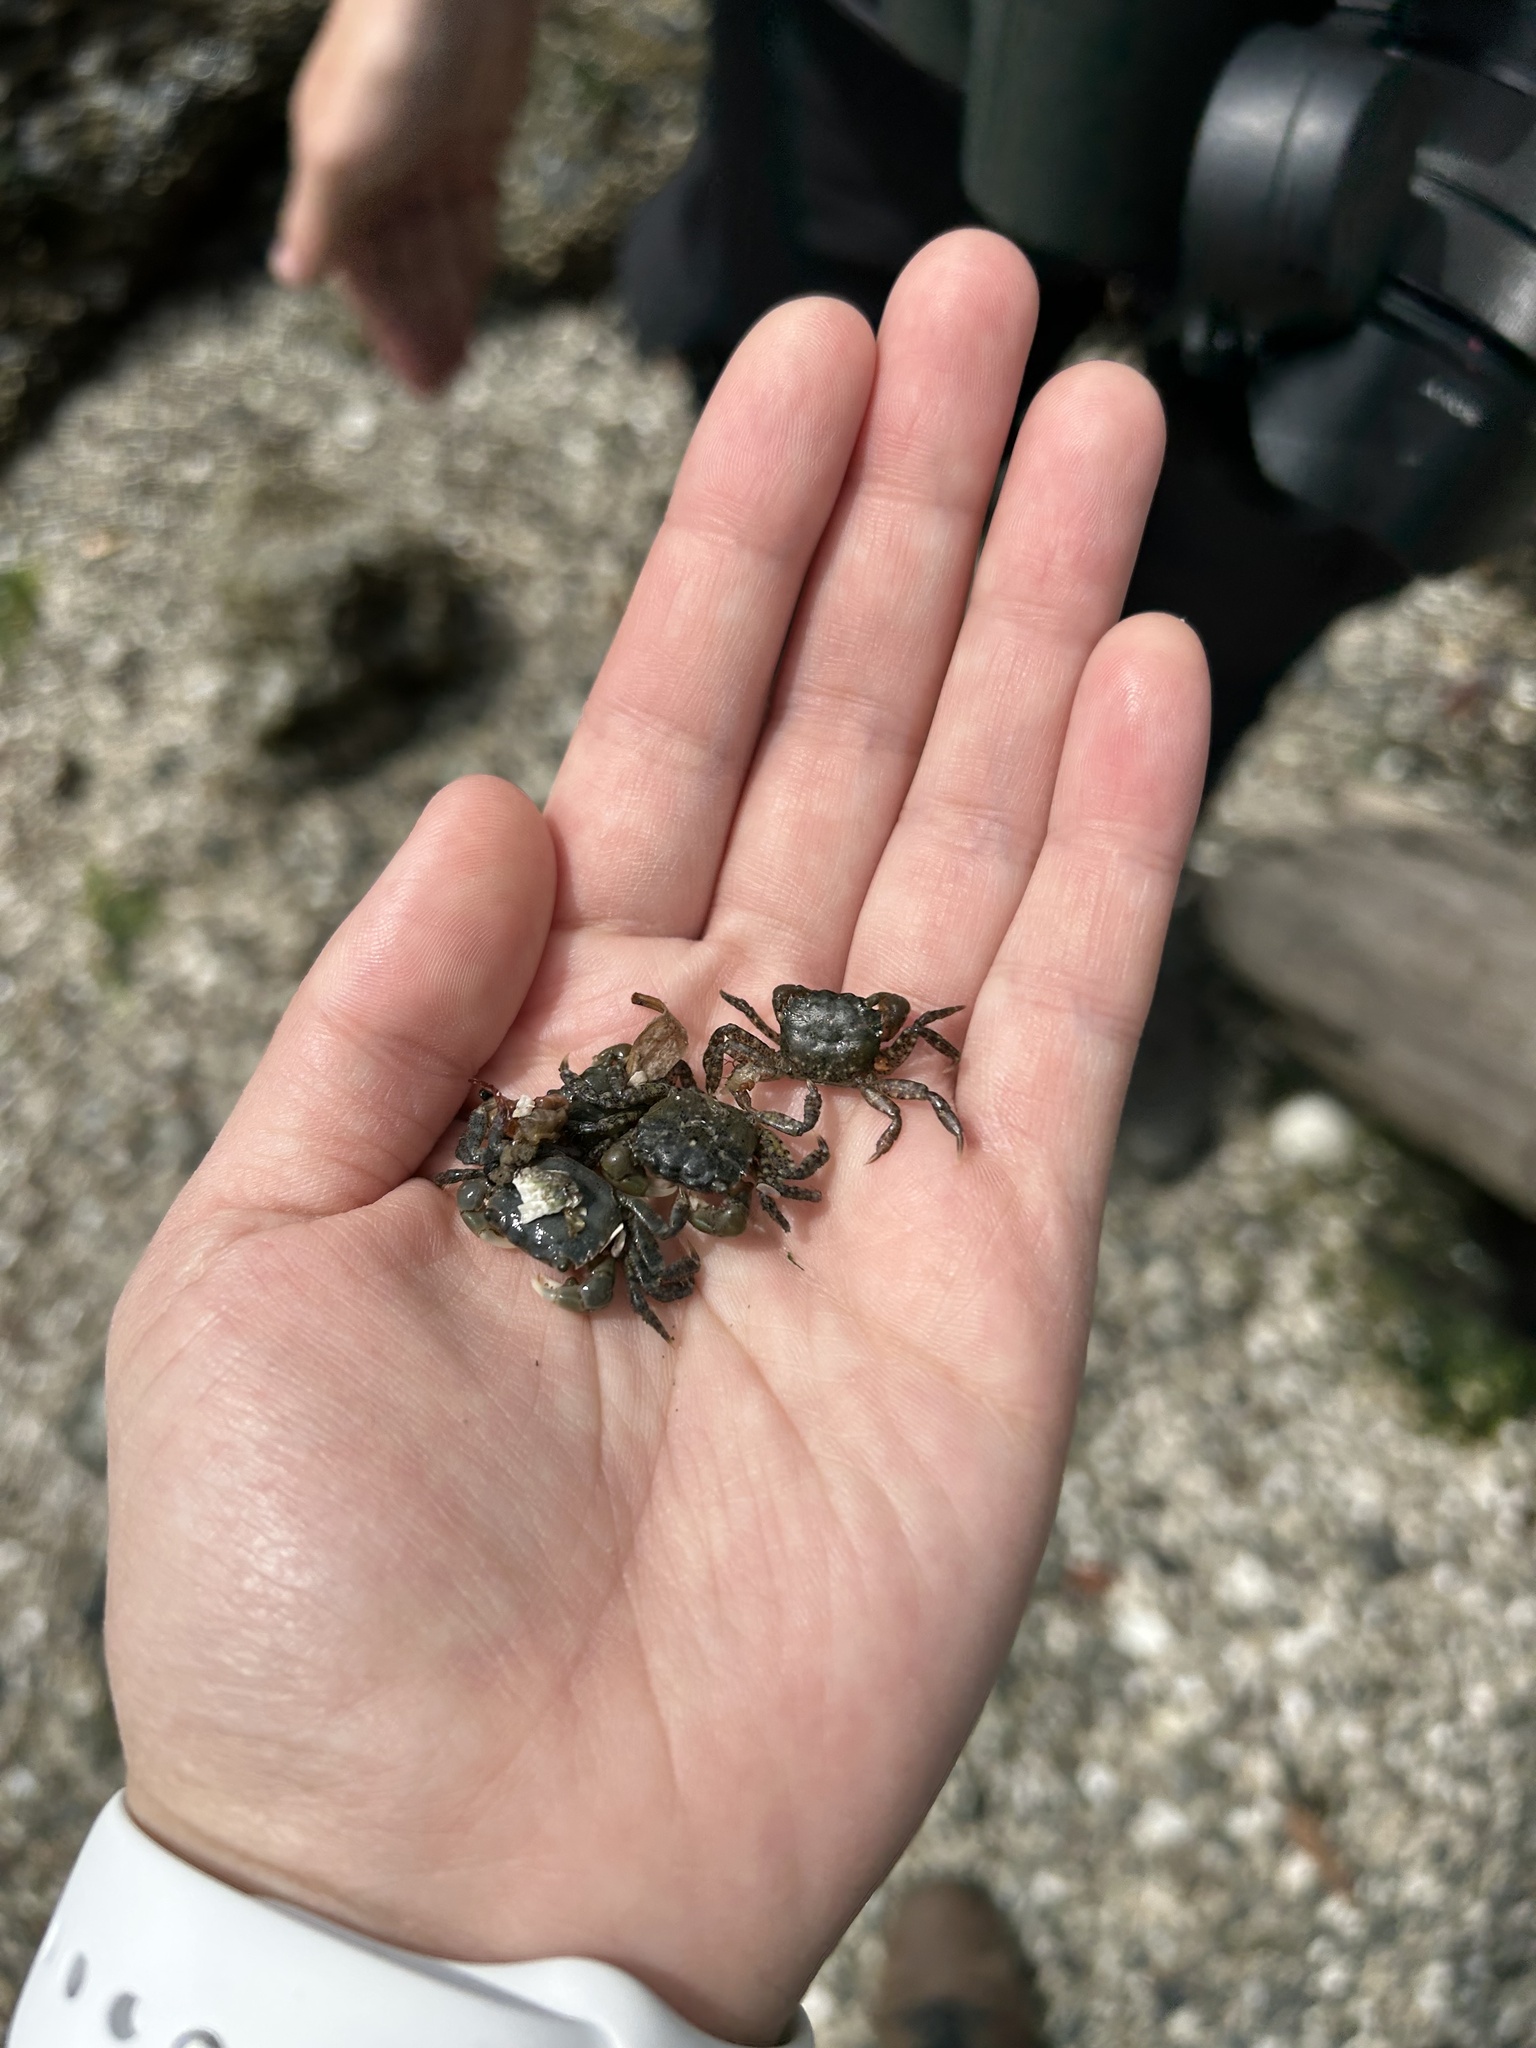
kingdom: Animalia
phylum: Arthropoda
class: Malacostraca
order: Decapoda
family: Varunidae
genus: Hemigrapsus
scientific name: Hemigrapsus oregonensis
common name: Yellow shore crab
